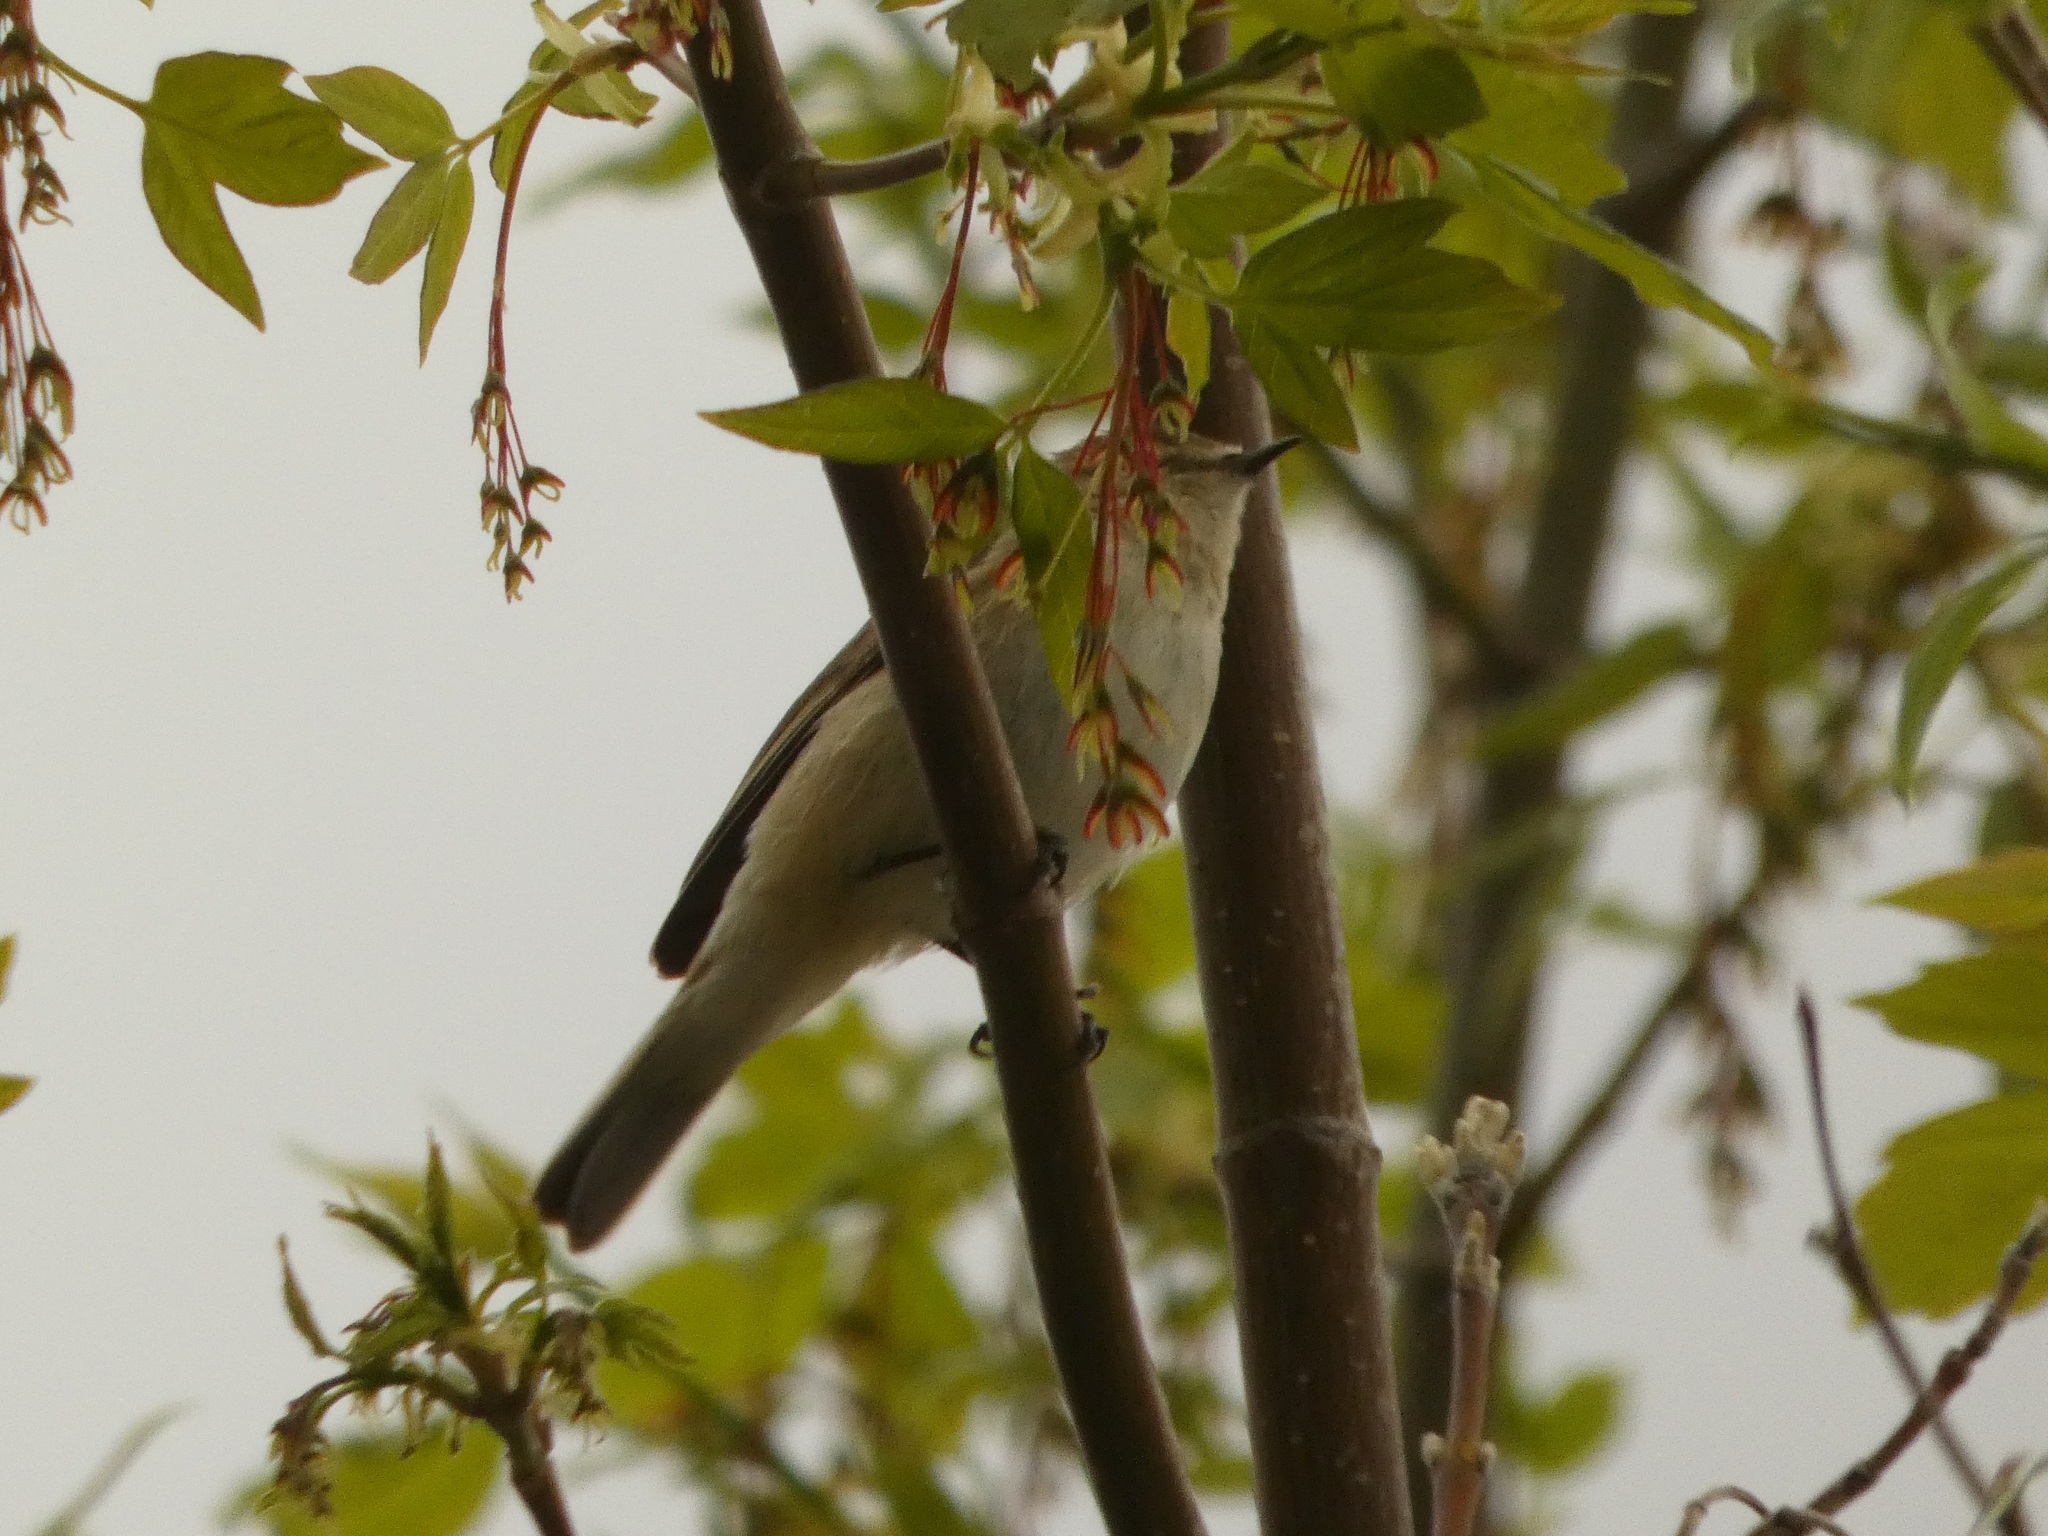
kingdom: Animalia
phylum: Chordata
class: Aves
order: Passeriformes
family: Phylloscopidae
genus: Phylloscopus
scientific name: Phylloscopus collybita
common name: Common chiffchaff
